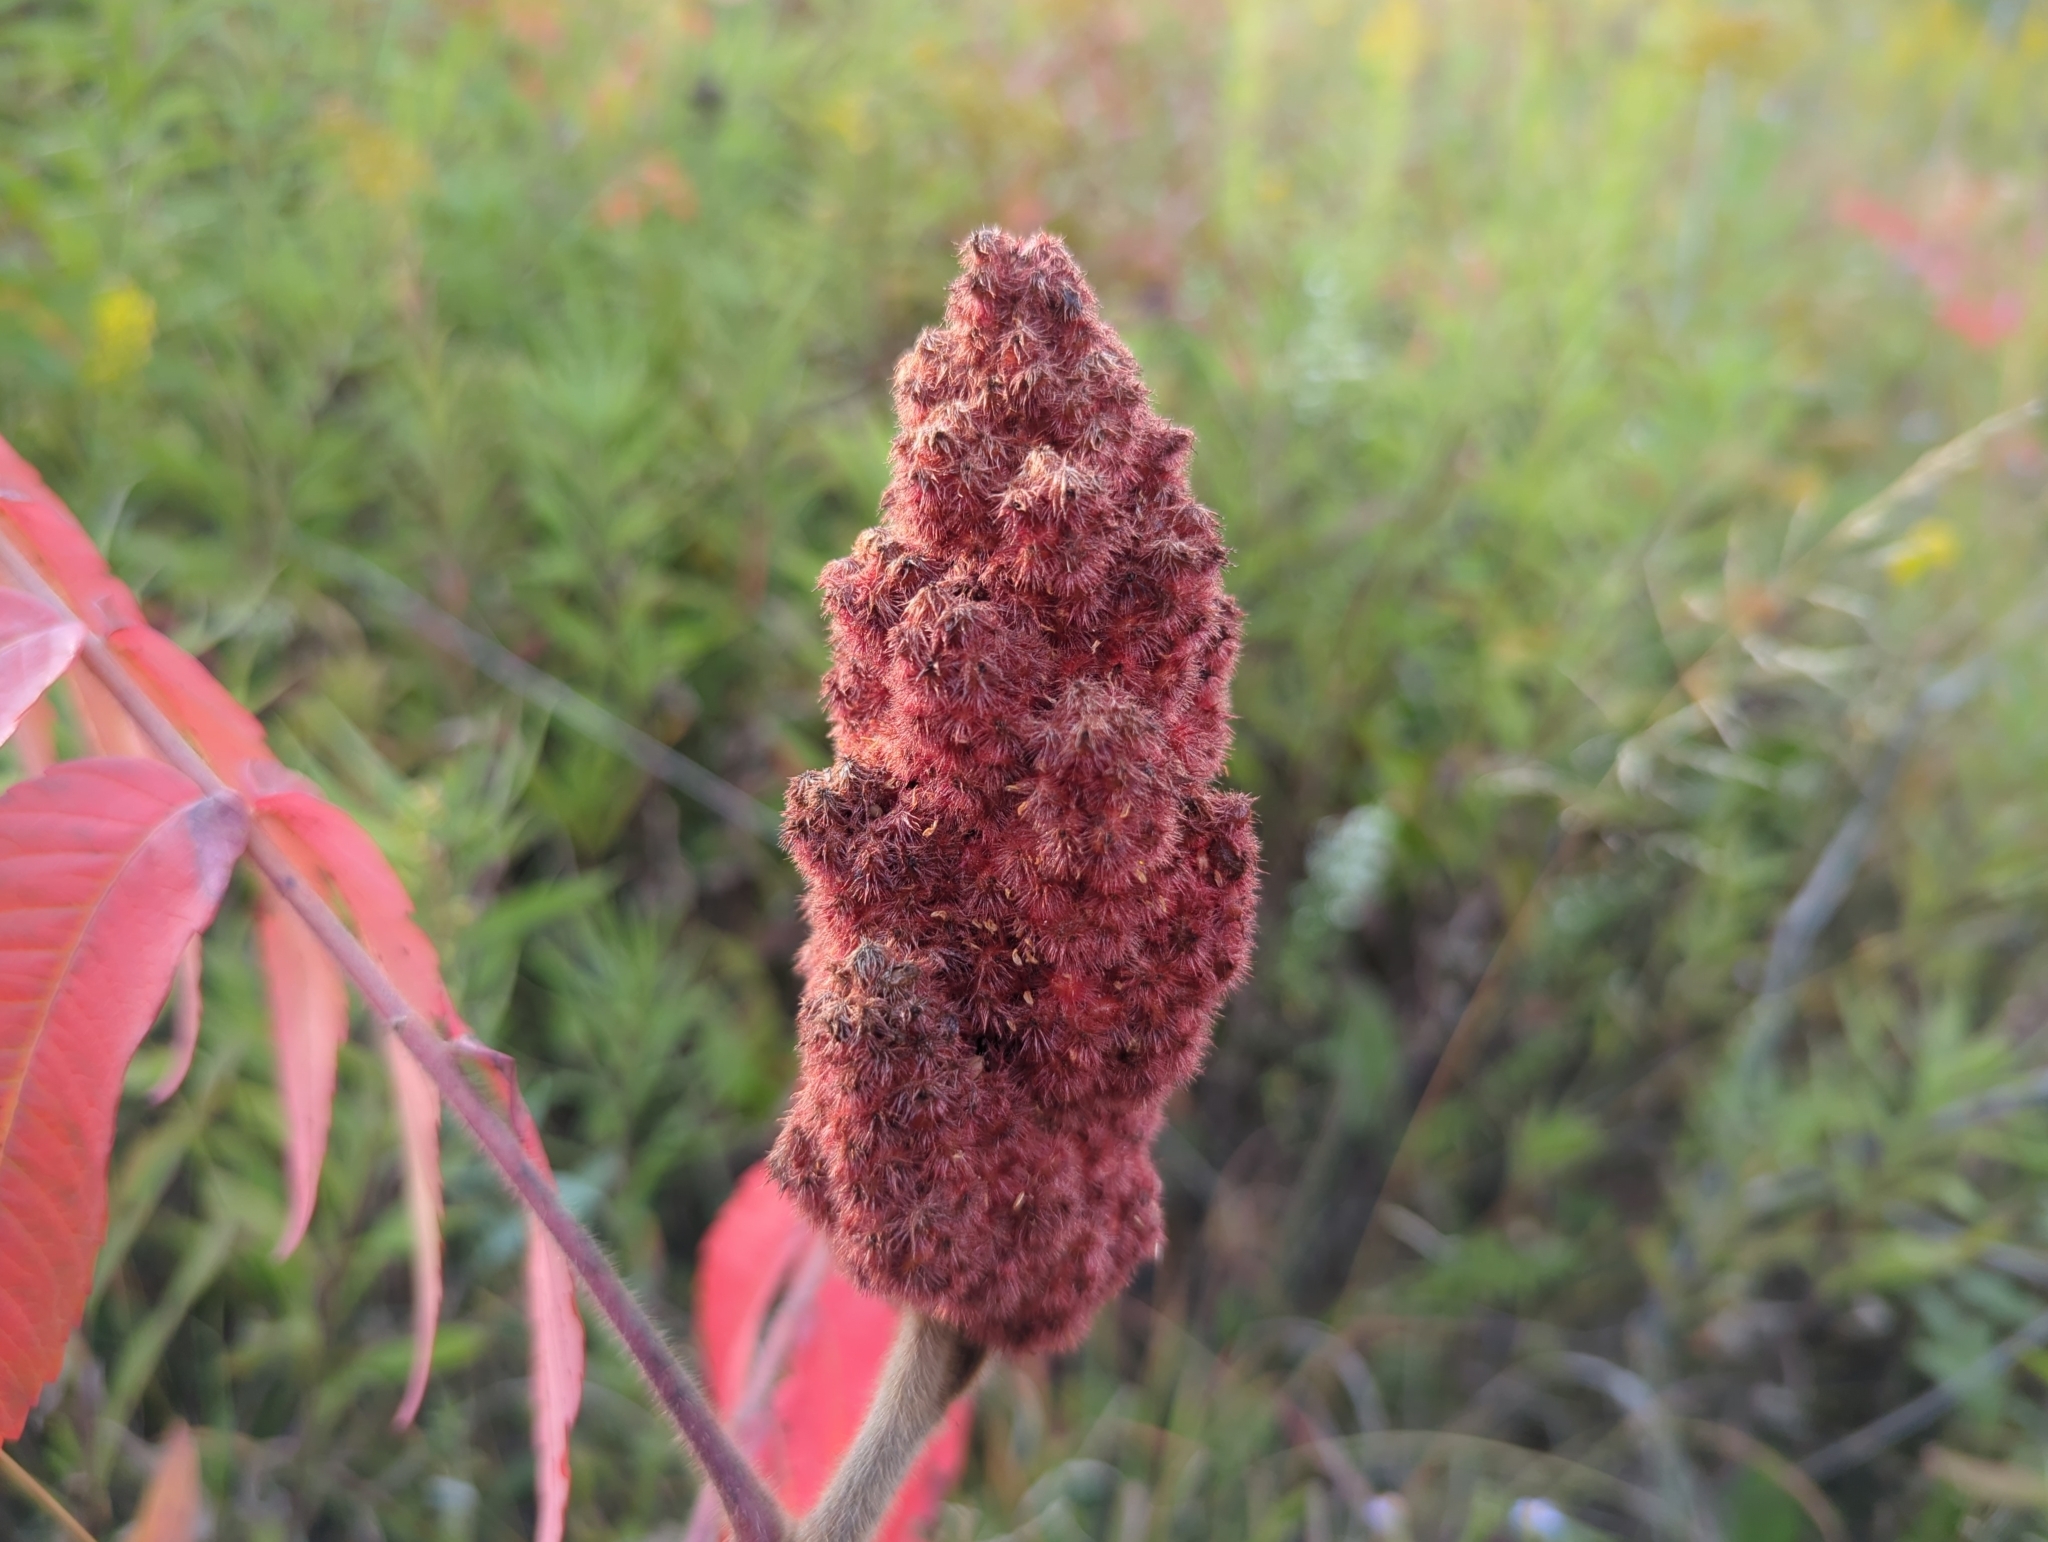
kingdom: Plantae
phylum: Tracheophyta
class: Magnoliopsida
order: Sapindales
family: Anacardiaceae
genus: Rhus
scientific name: Rhus typhina
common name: Staghorn sumac
